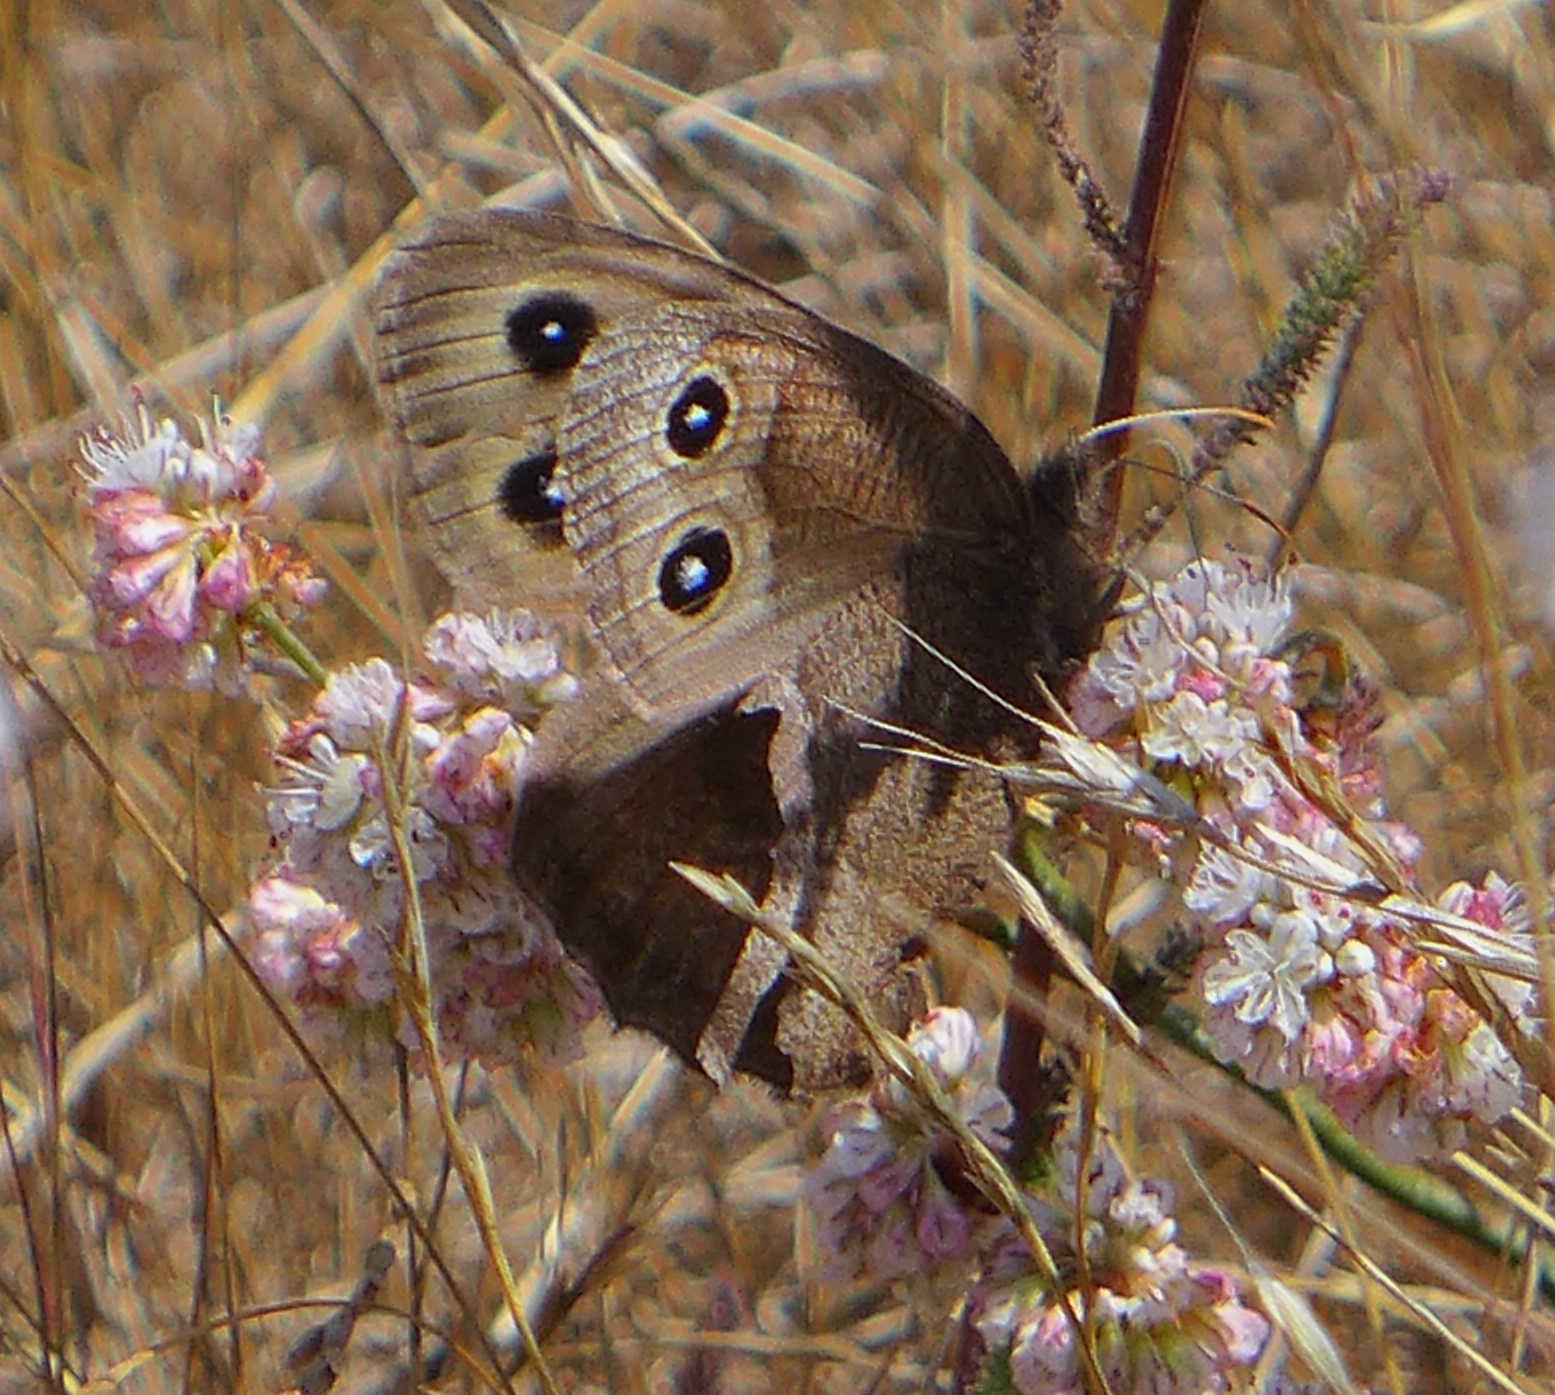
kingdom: Animalia
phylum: Arthropoda
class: Insecta
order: Lepidoptera
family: Nymphalidae
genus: Cercyonis
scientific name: Cercyonis pegala
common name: Common wood-nymph
